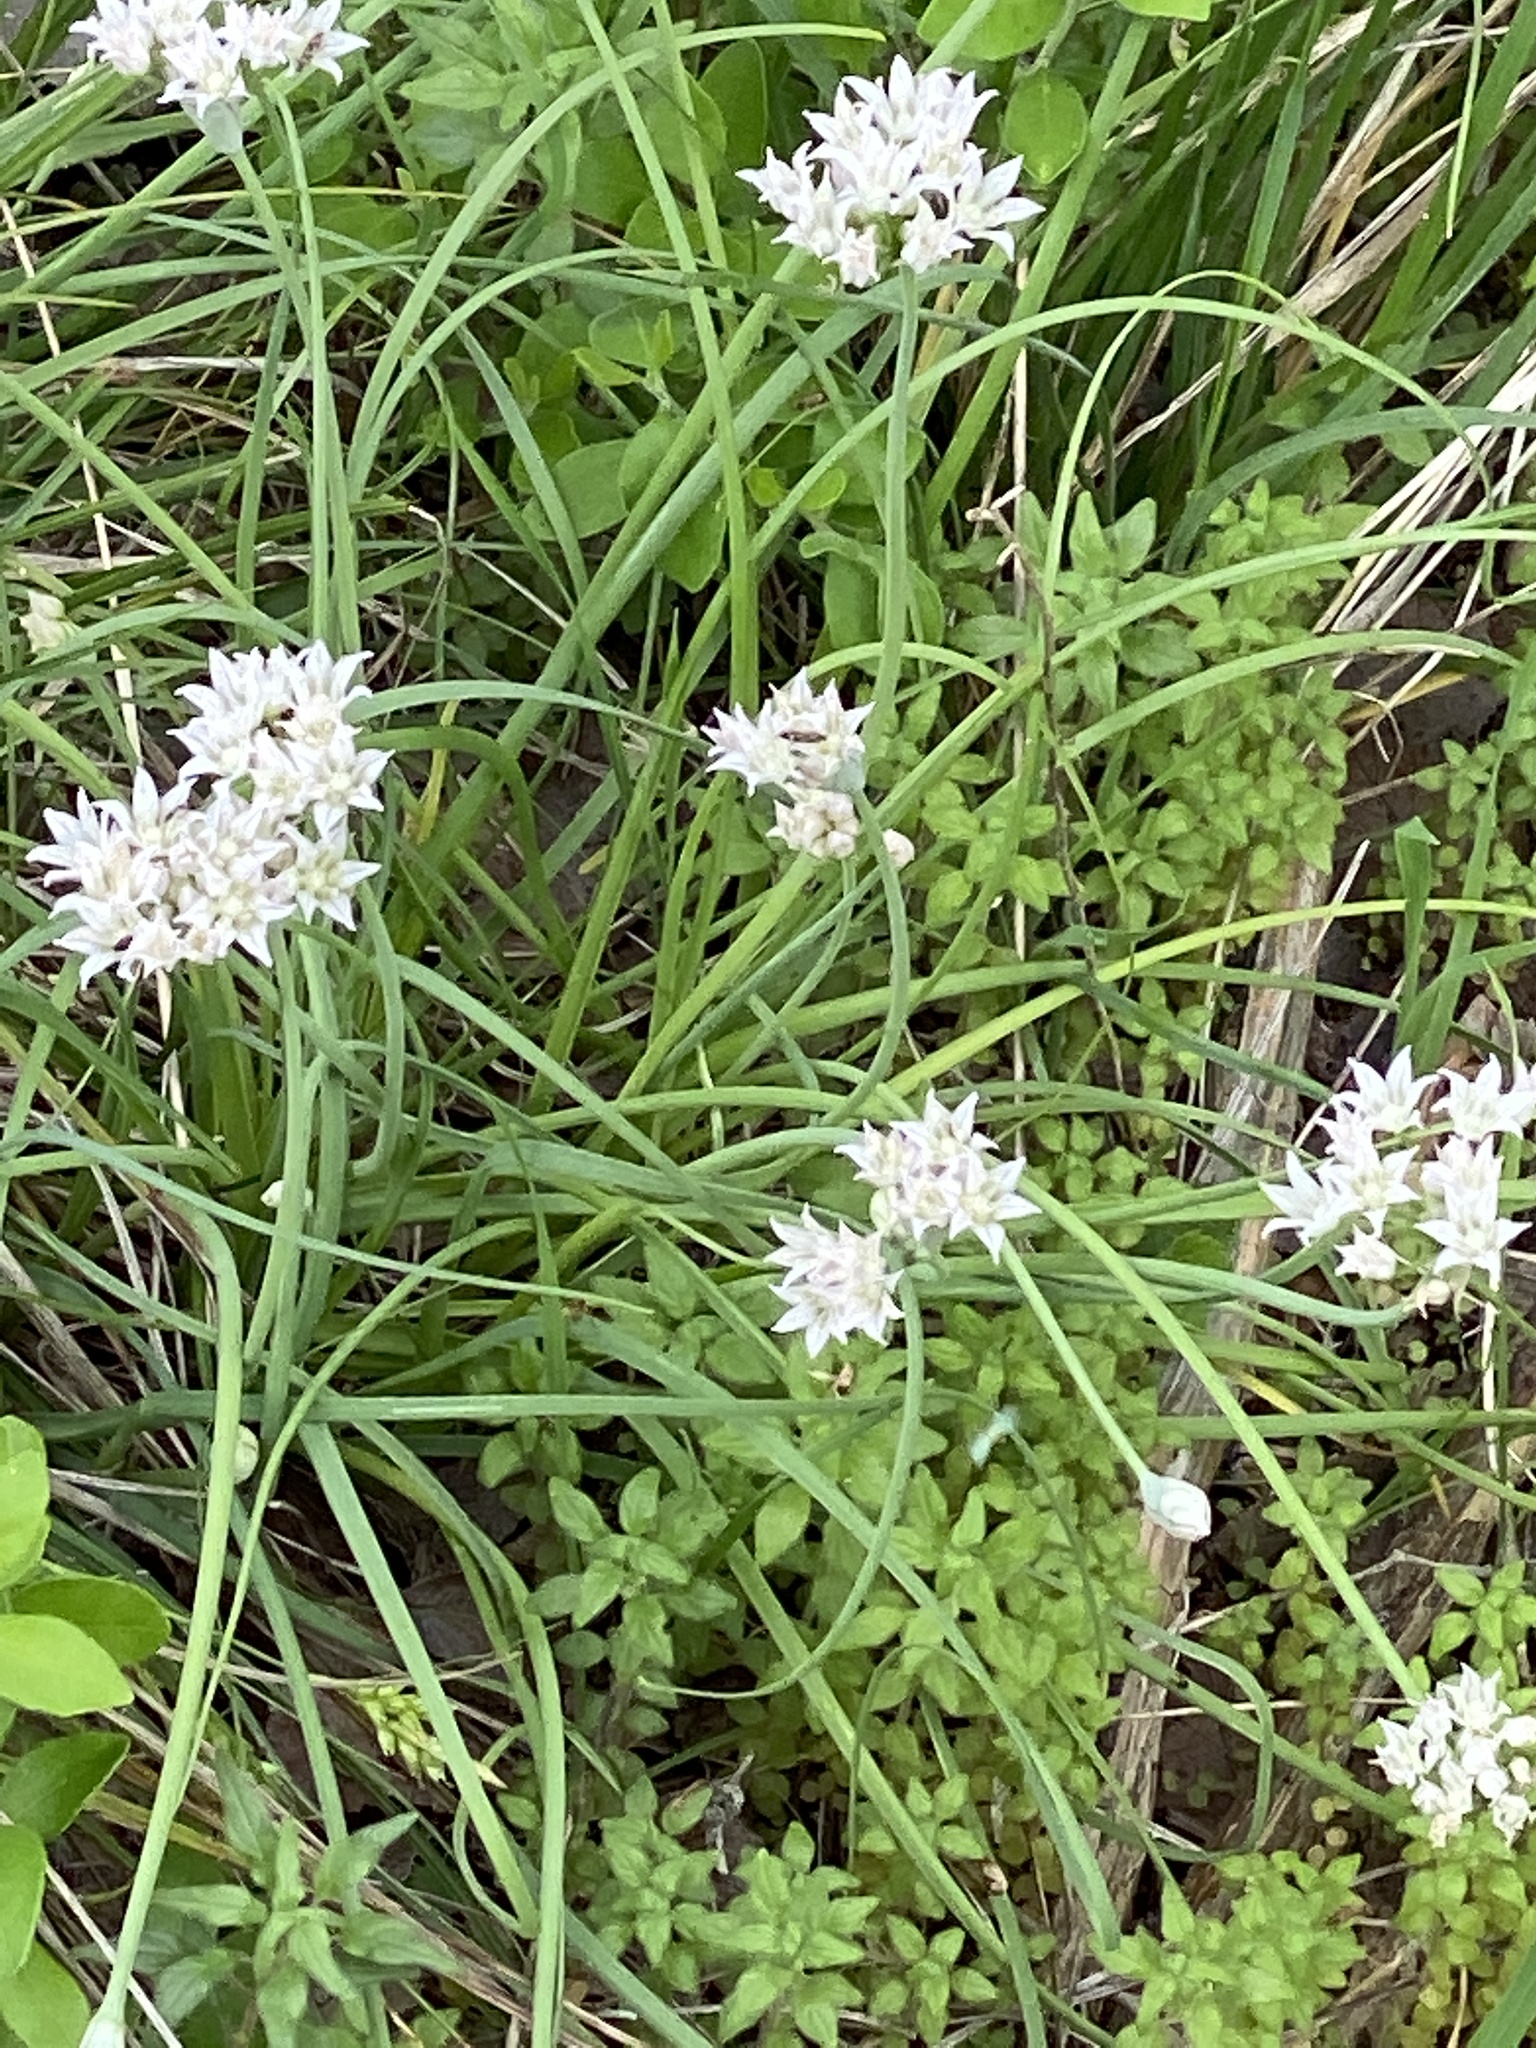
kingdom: Plantae
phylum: Tracheophyta
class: Liliopsida
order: Asparagales
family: Amaryllidaceae
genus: Allium
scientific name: Allium drummondii
